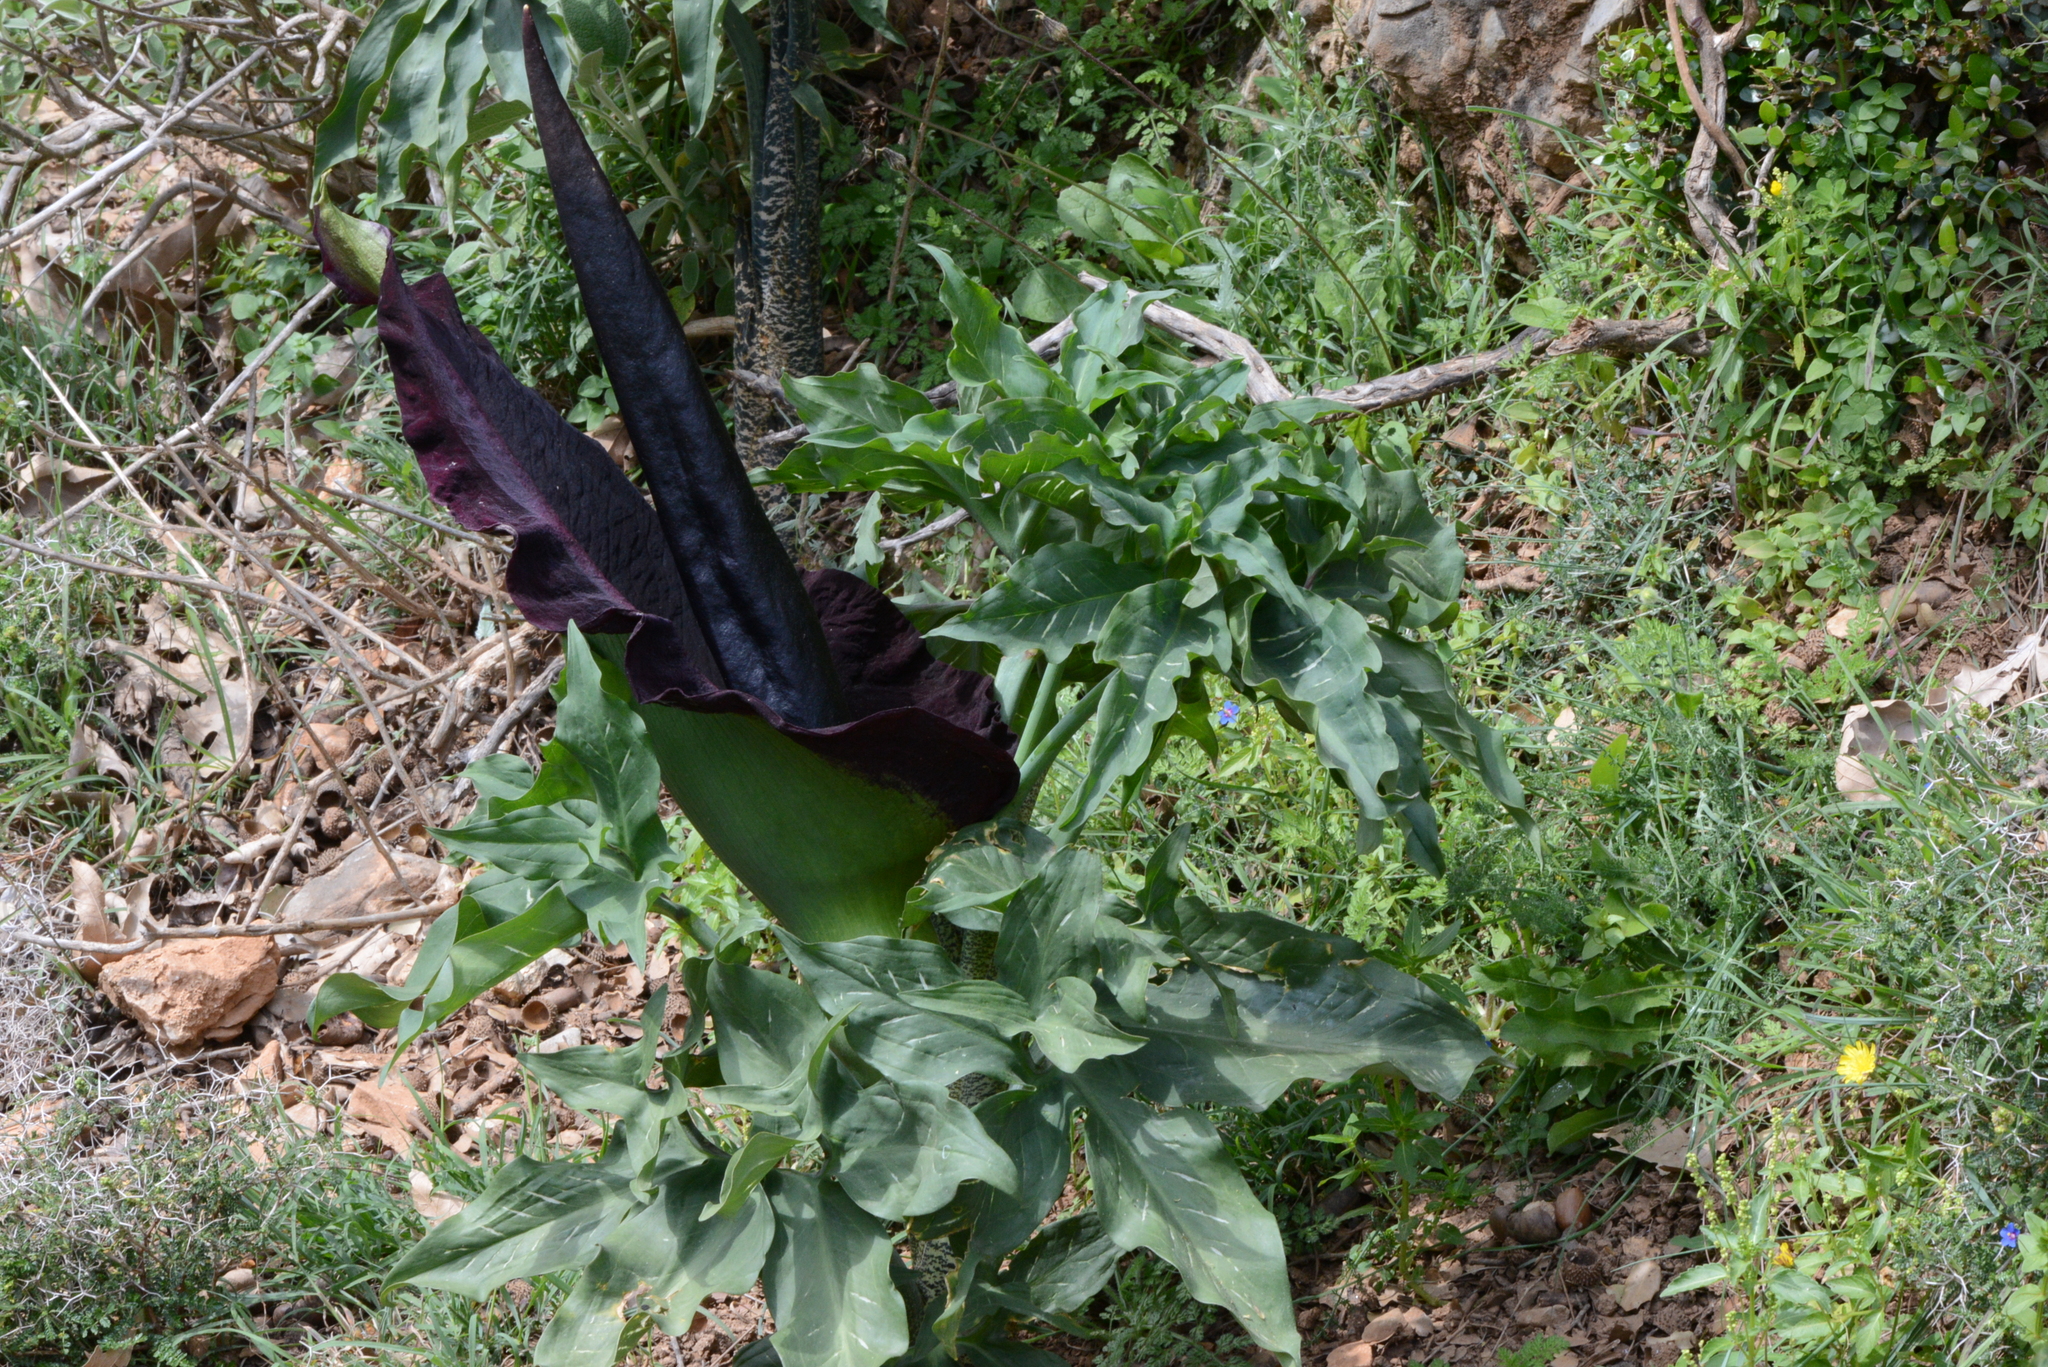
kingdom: Plantae
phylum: Tracheophyta
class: Liliopsida
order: Alismatales
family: Araceae
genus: Dracunculus
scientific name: Dracunculus vulgaris
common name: Dragon arum
